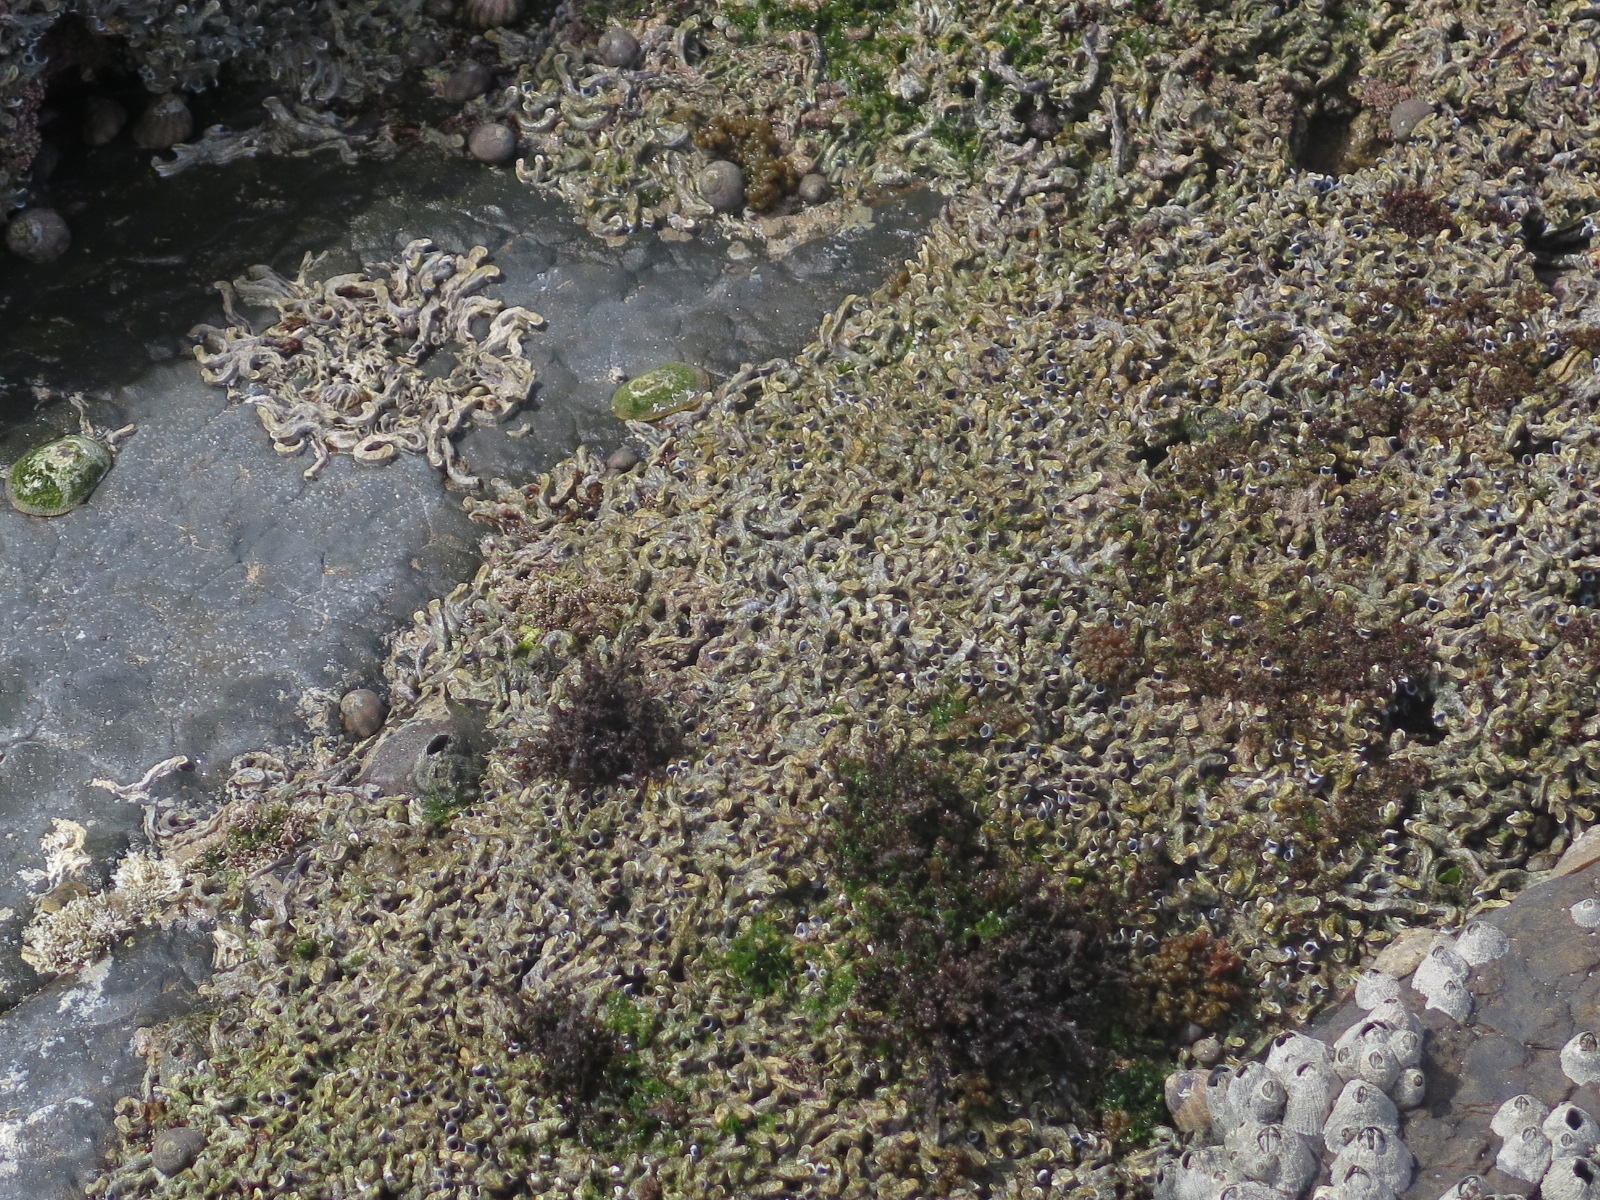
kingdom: Animalia
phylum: Annelida
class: Polychaeta
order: Sabellida
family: Serpulidae
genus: Spirobranchus
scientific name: Spirobranchus kraussii
